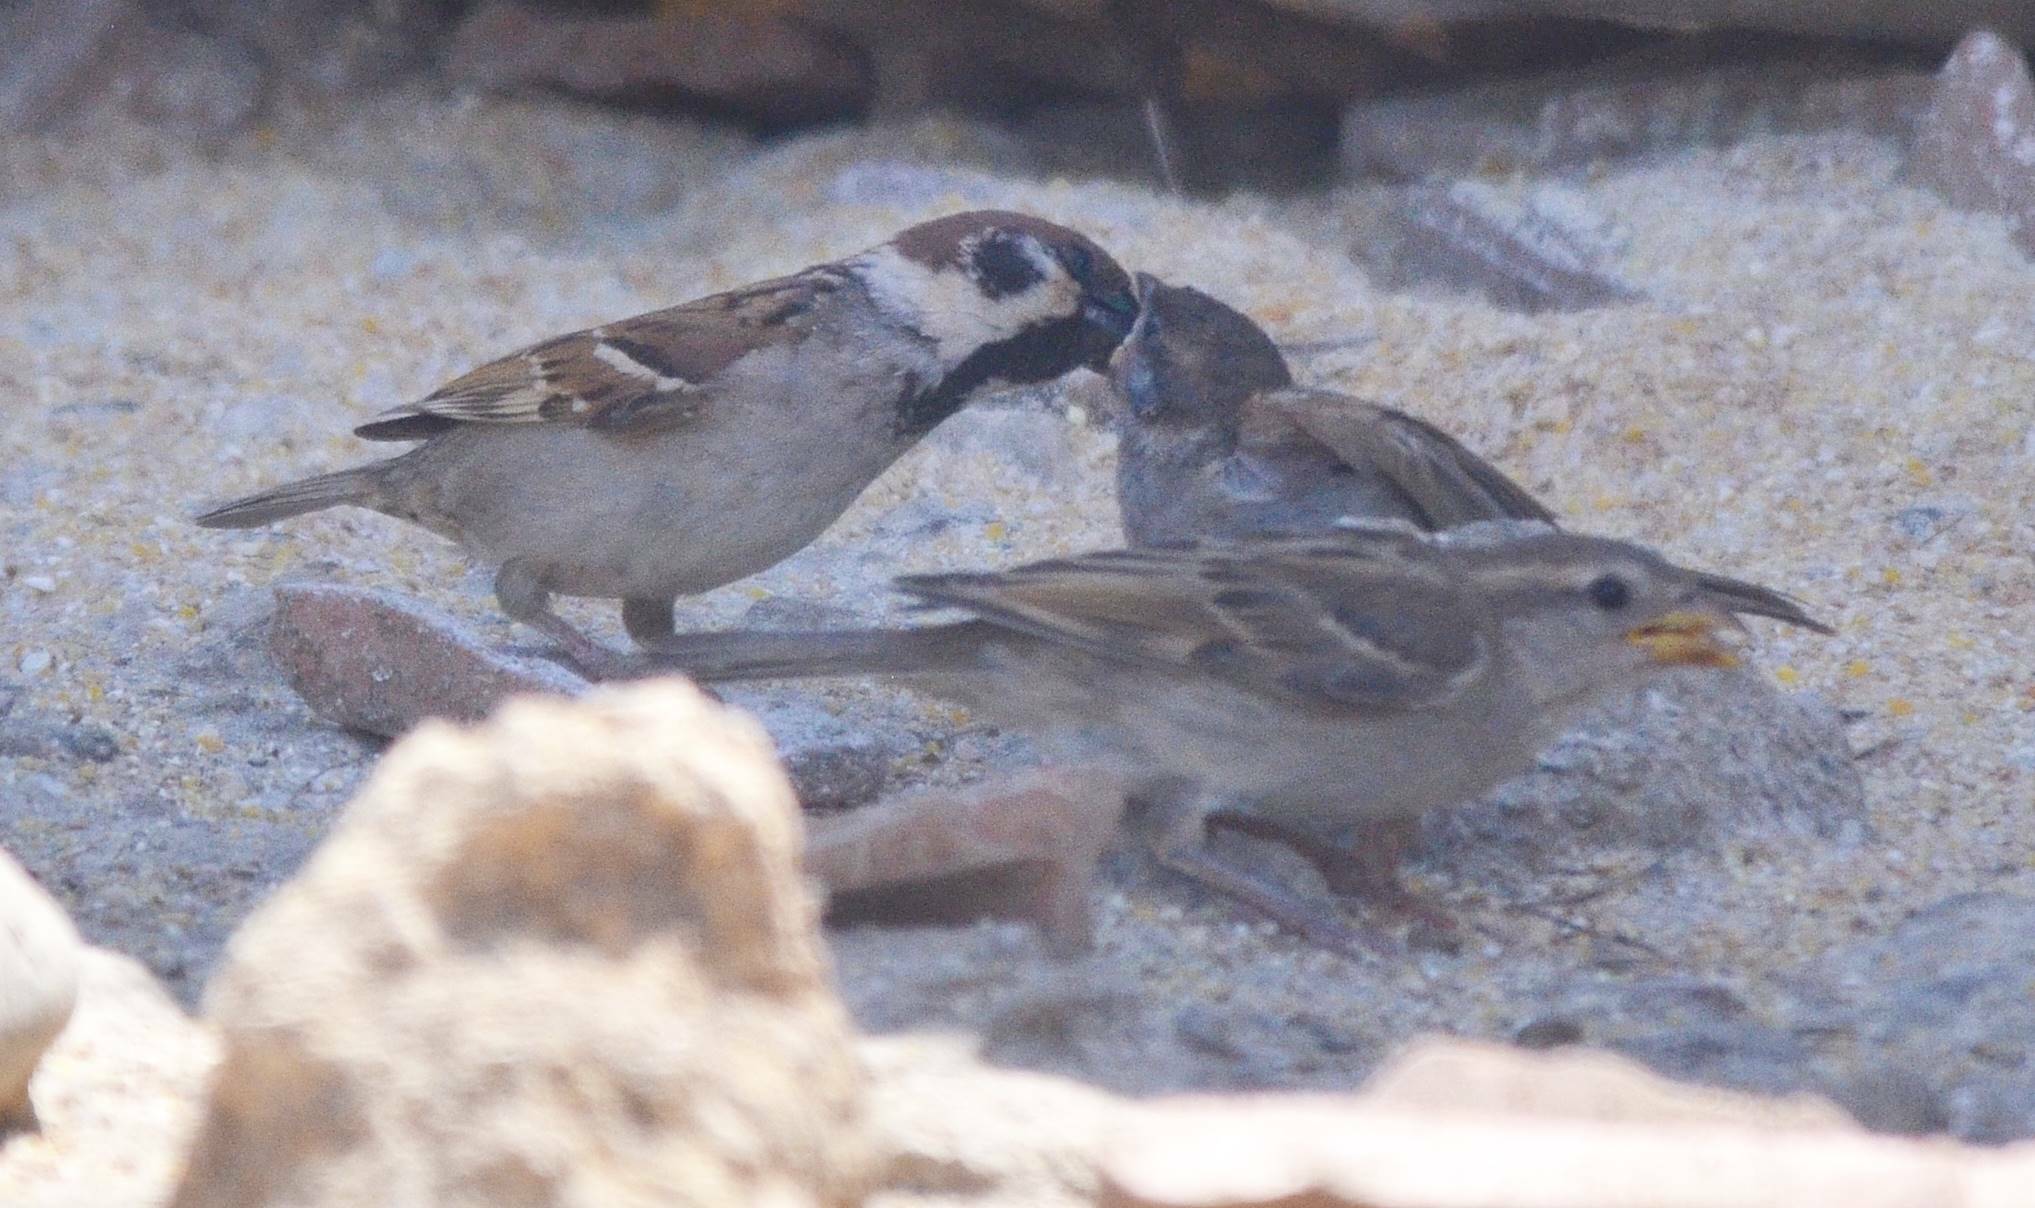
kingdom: Animalia
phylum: Chordata
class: Aves
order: Passeriformes
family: Passeridae
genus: Passer
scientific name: Passer montanus
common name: Eurasian tree sparrow
